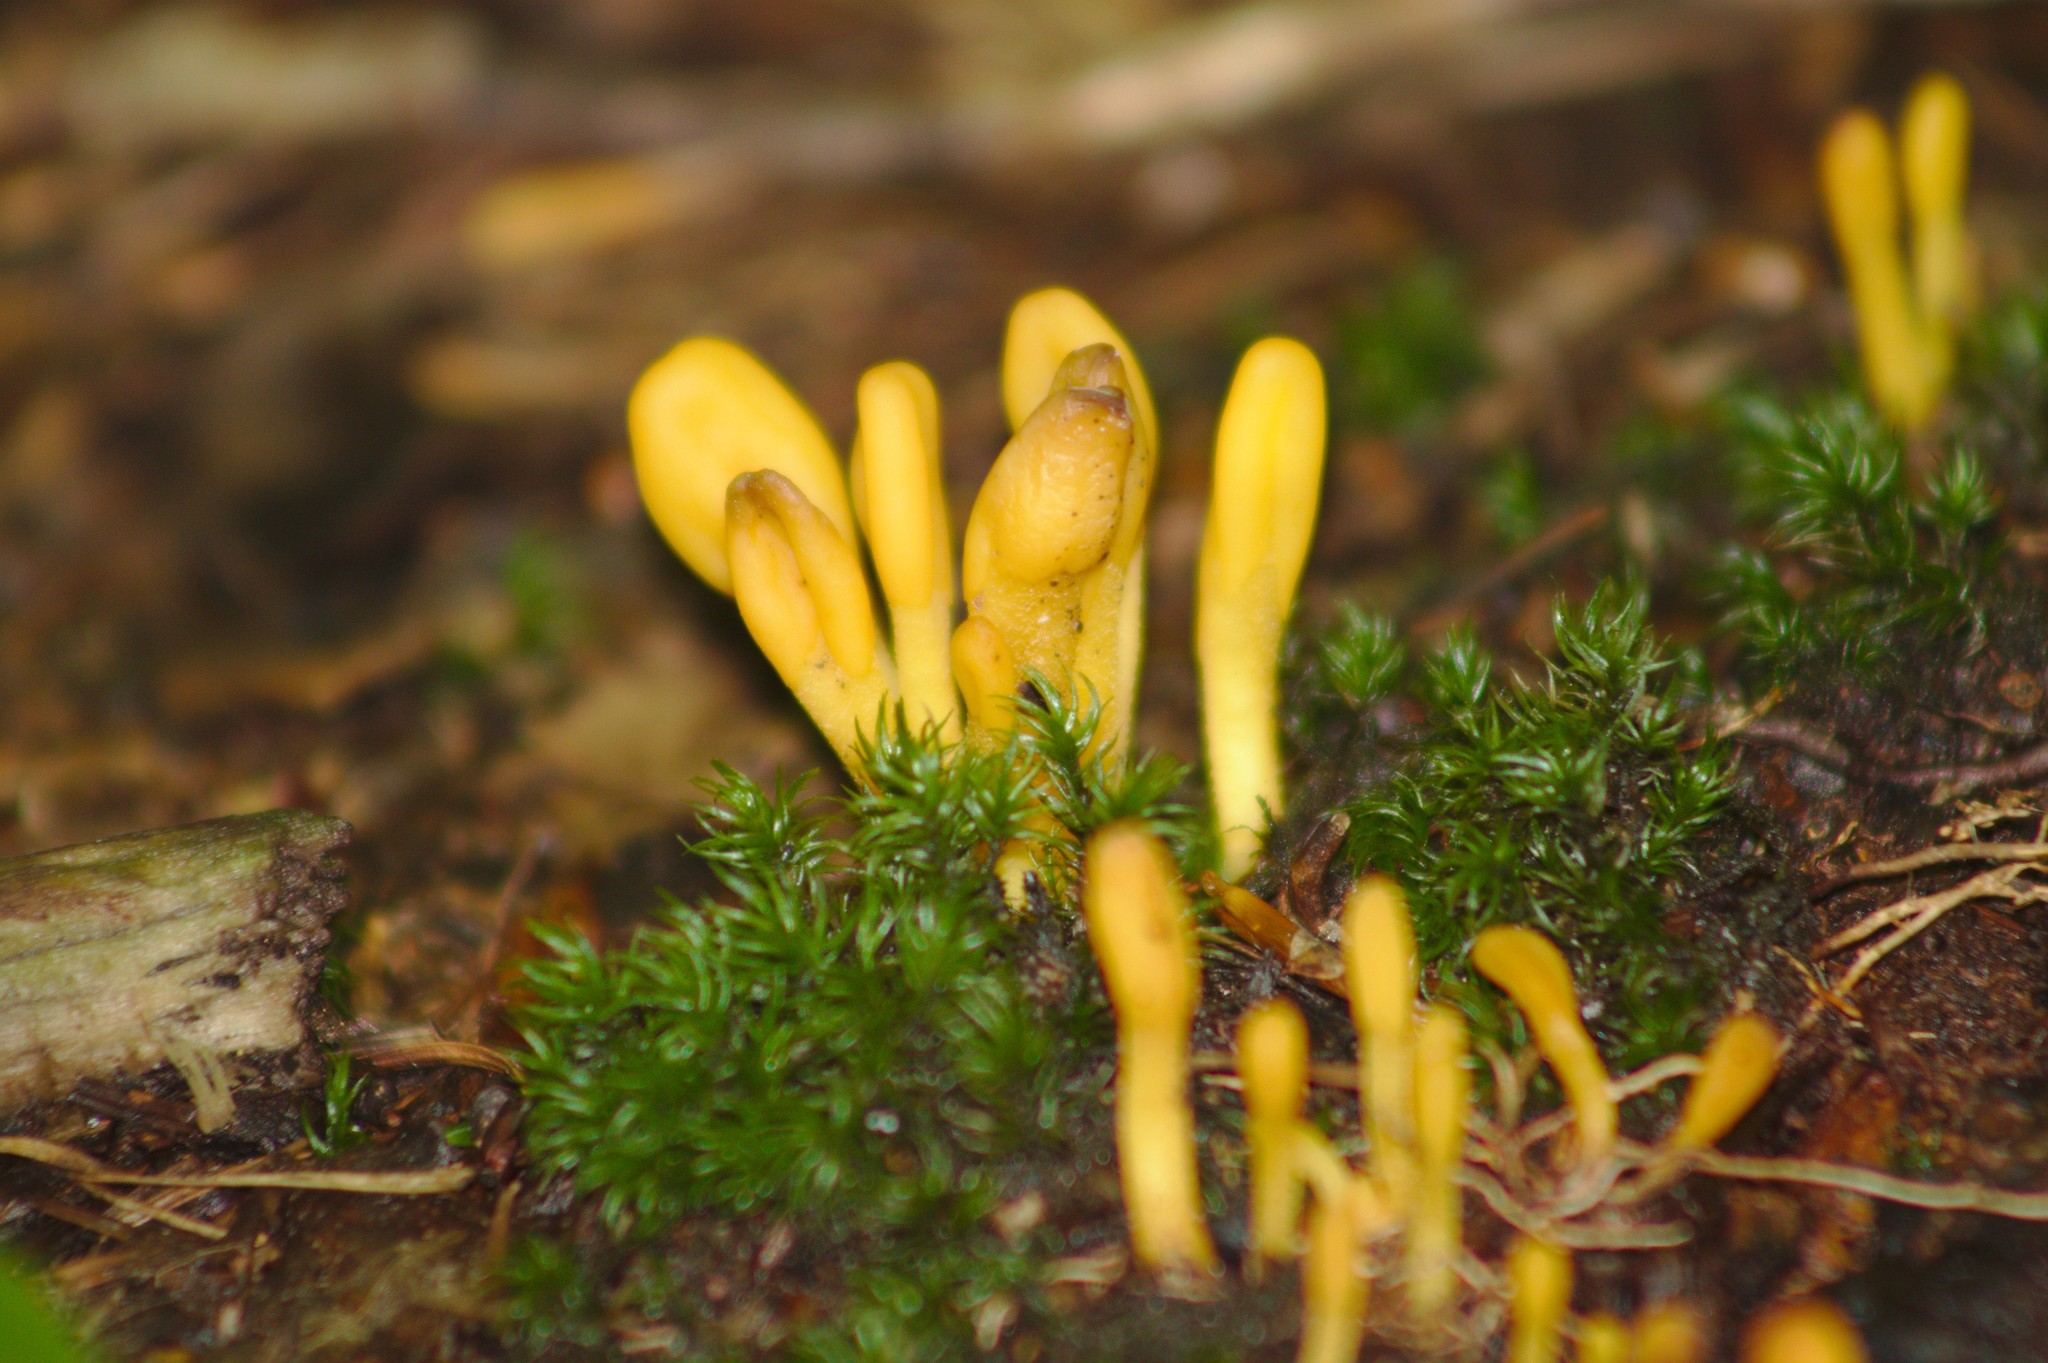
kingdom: Fungi
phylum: Ascomycota
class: Leotiomycetes
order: Leotiales
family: Leotiaceae
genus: Microglossum
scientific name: Microglossum rufum
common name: Orange earthtongue
